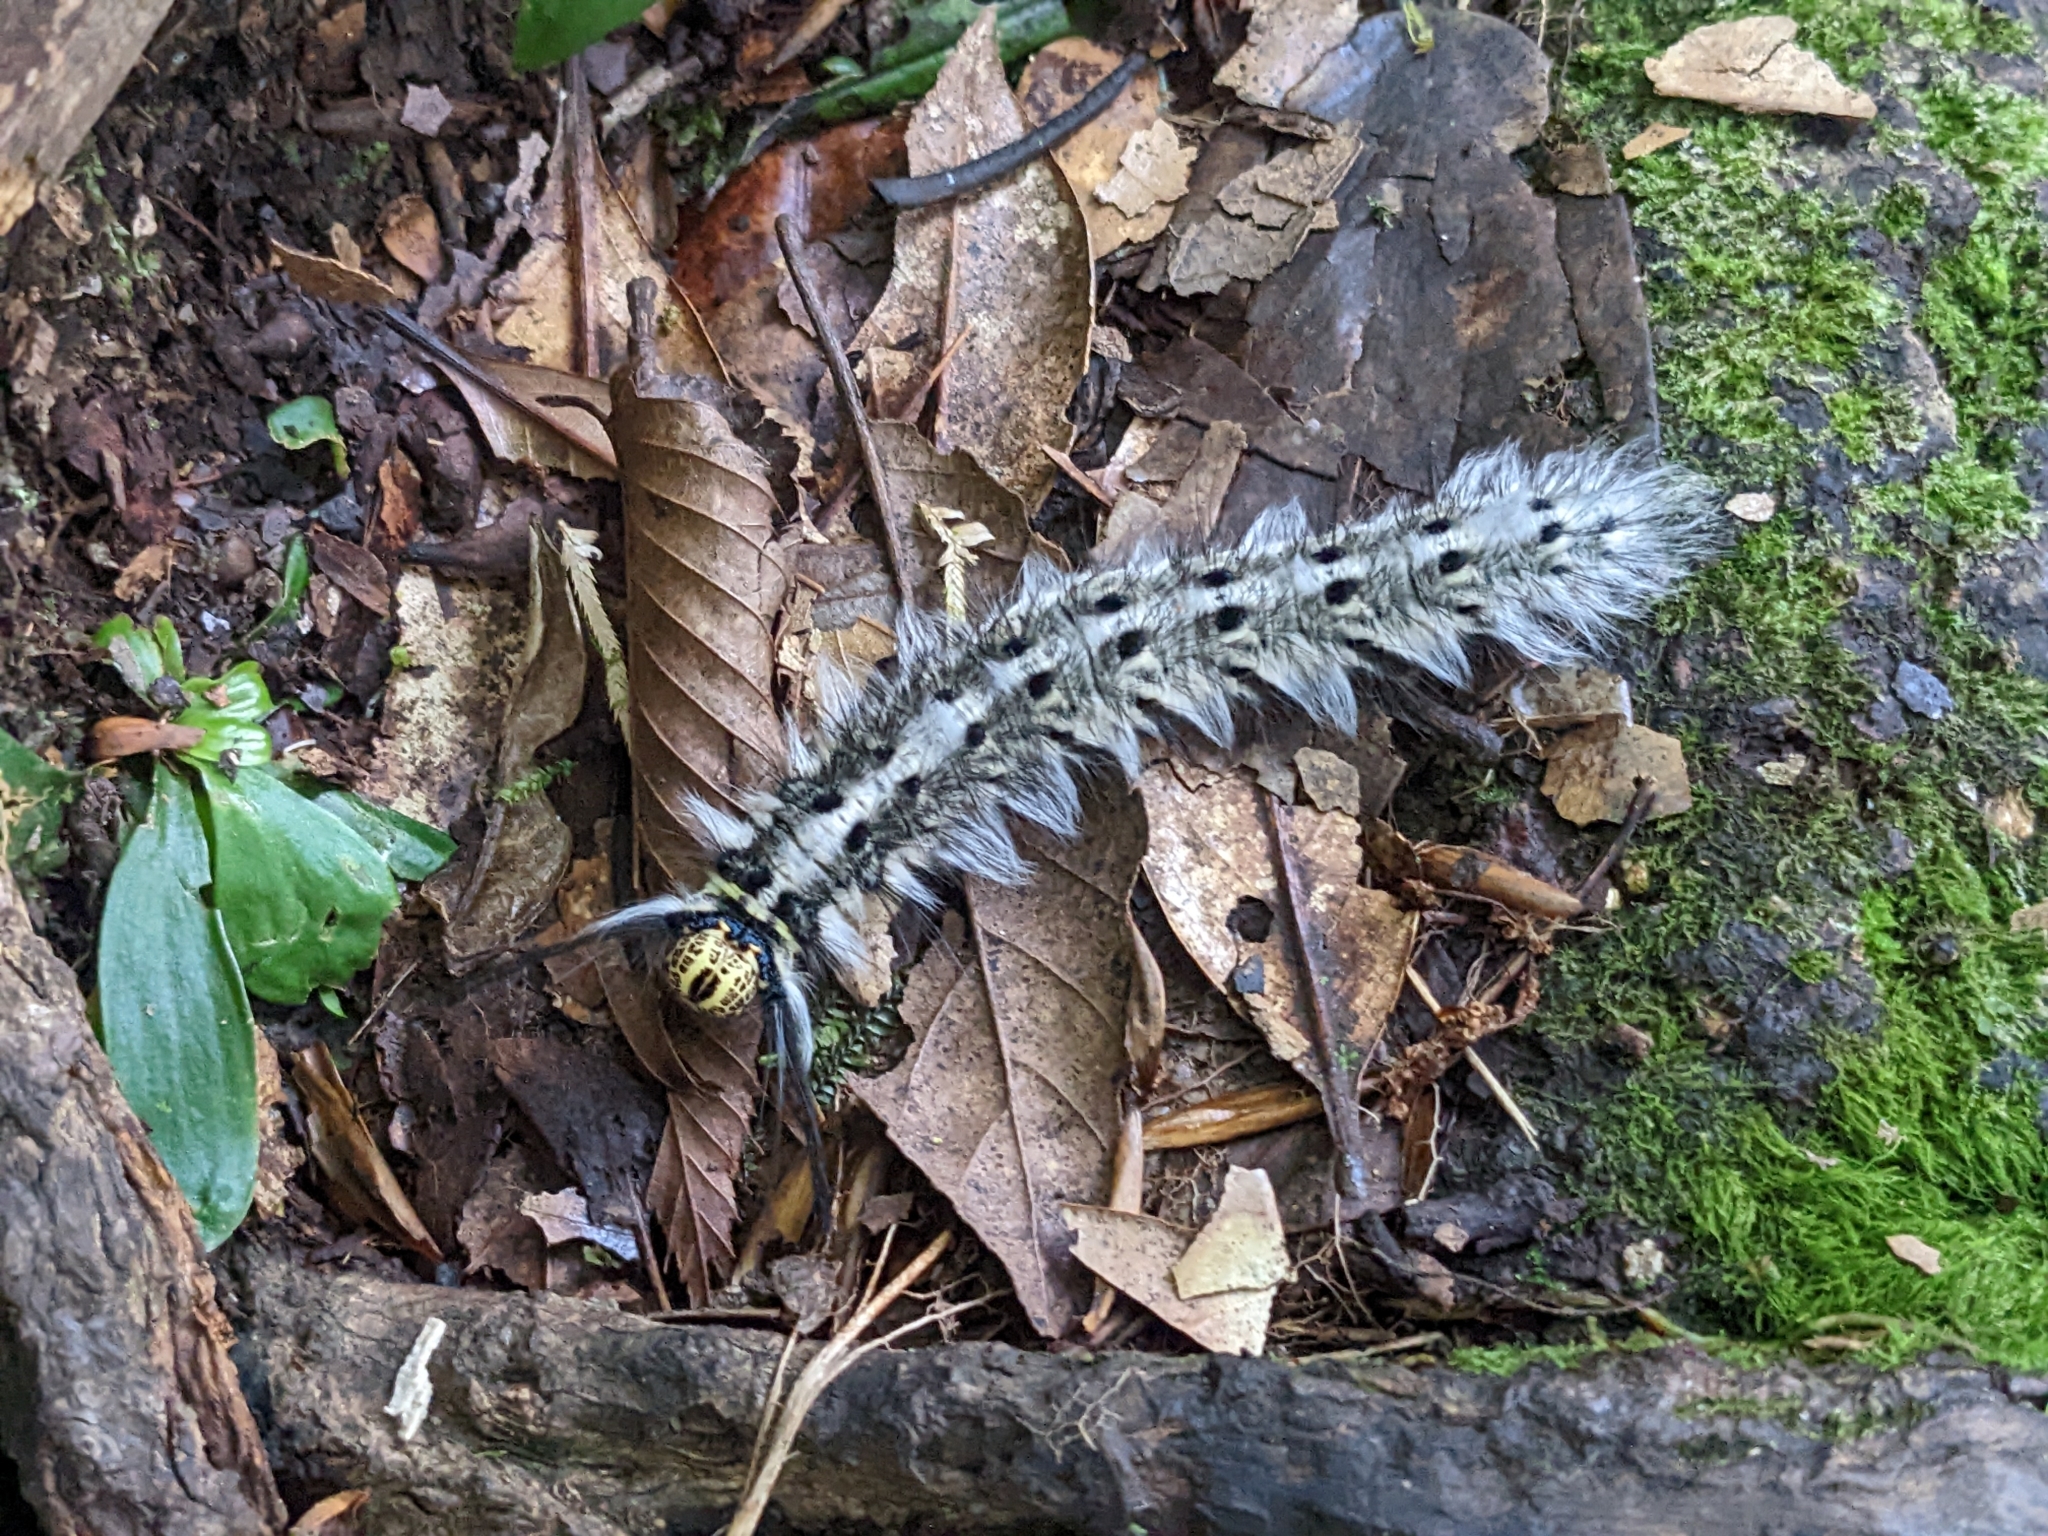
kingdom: Animalia
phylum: Arthropoda
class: Insecta
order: Lepidoptera
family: Lasiocampidae
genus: Trabala
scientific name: Trabala vishnou
